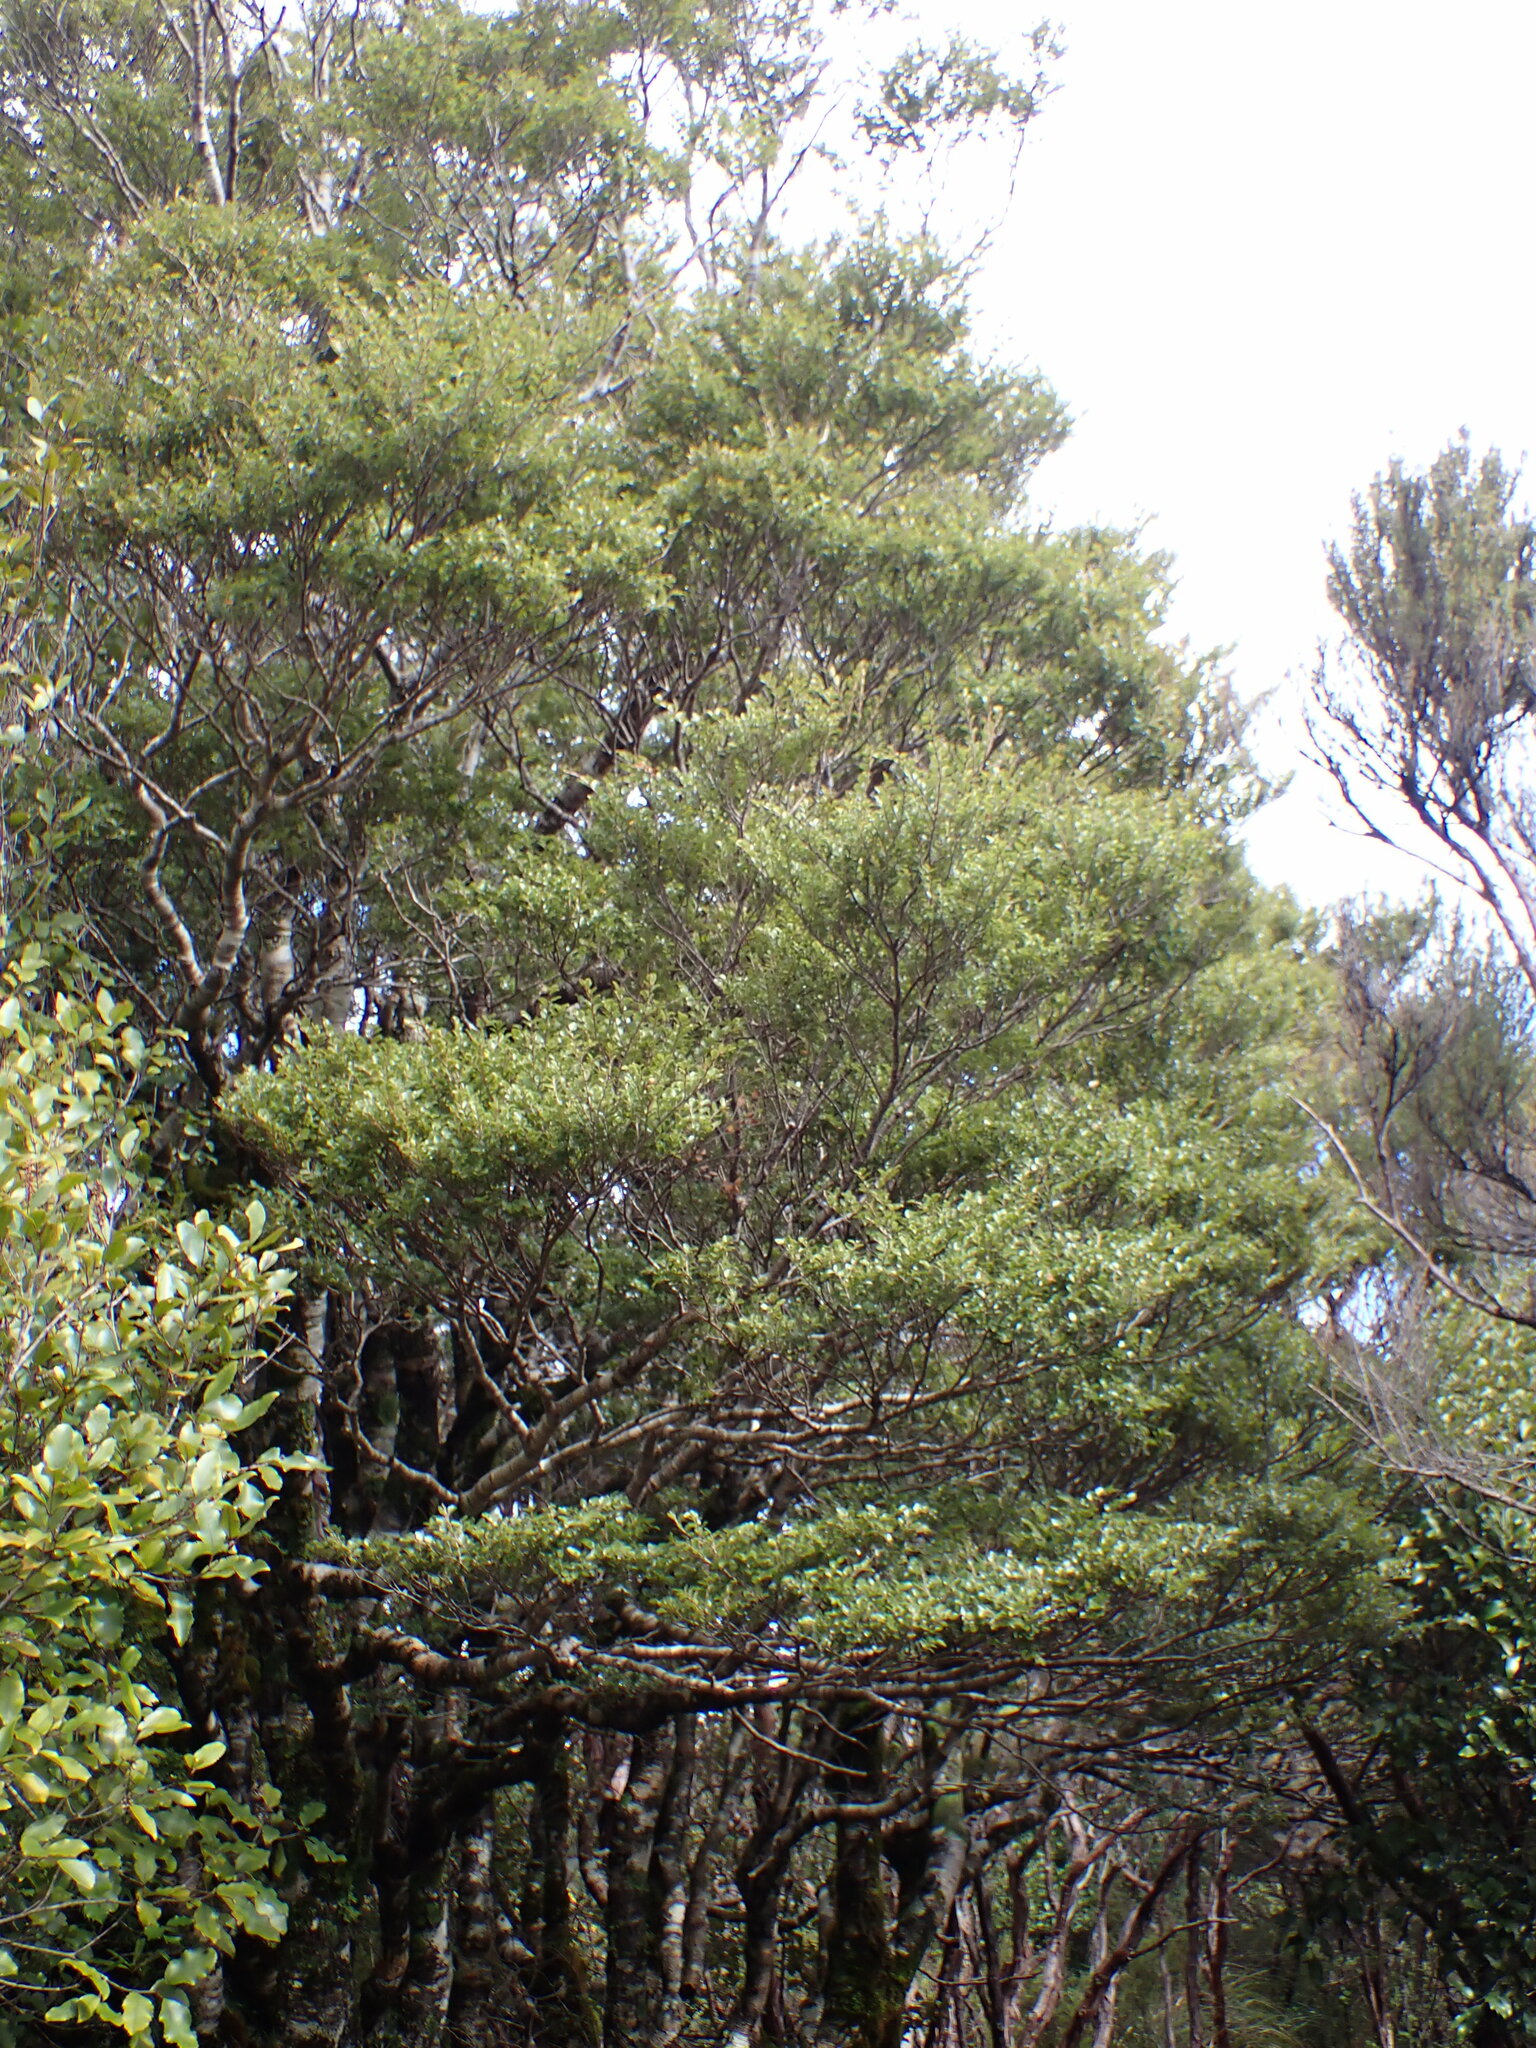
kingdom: Plantae
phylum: Tracheophyta
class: Magnoliopsida
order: Fagales
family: Nothofagaceae
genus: Nothofagus
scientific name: Nothofagus menziesii
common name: Silver beech
